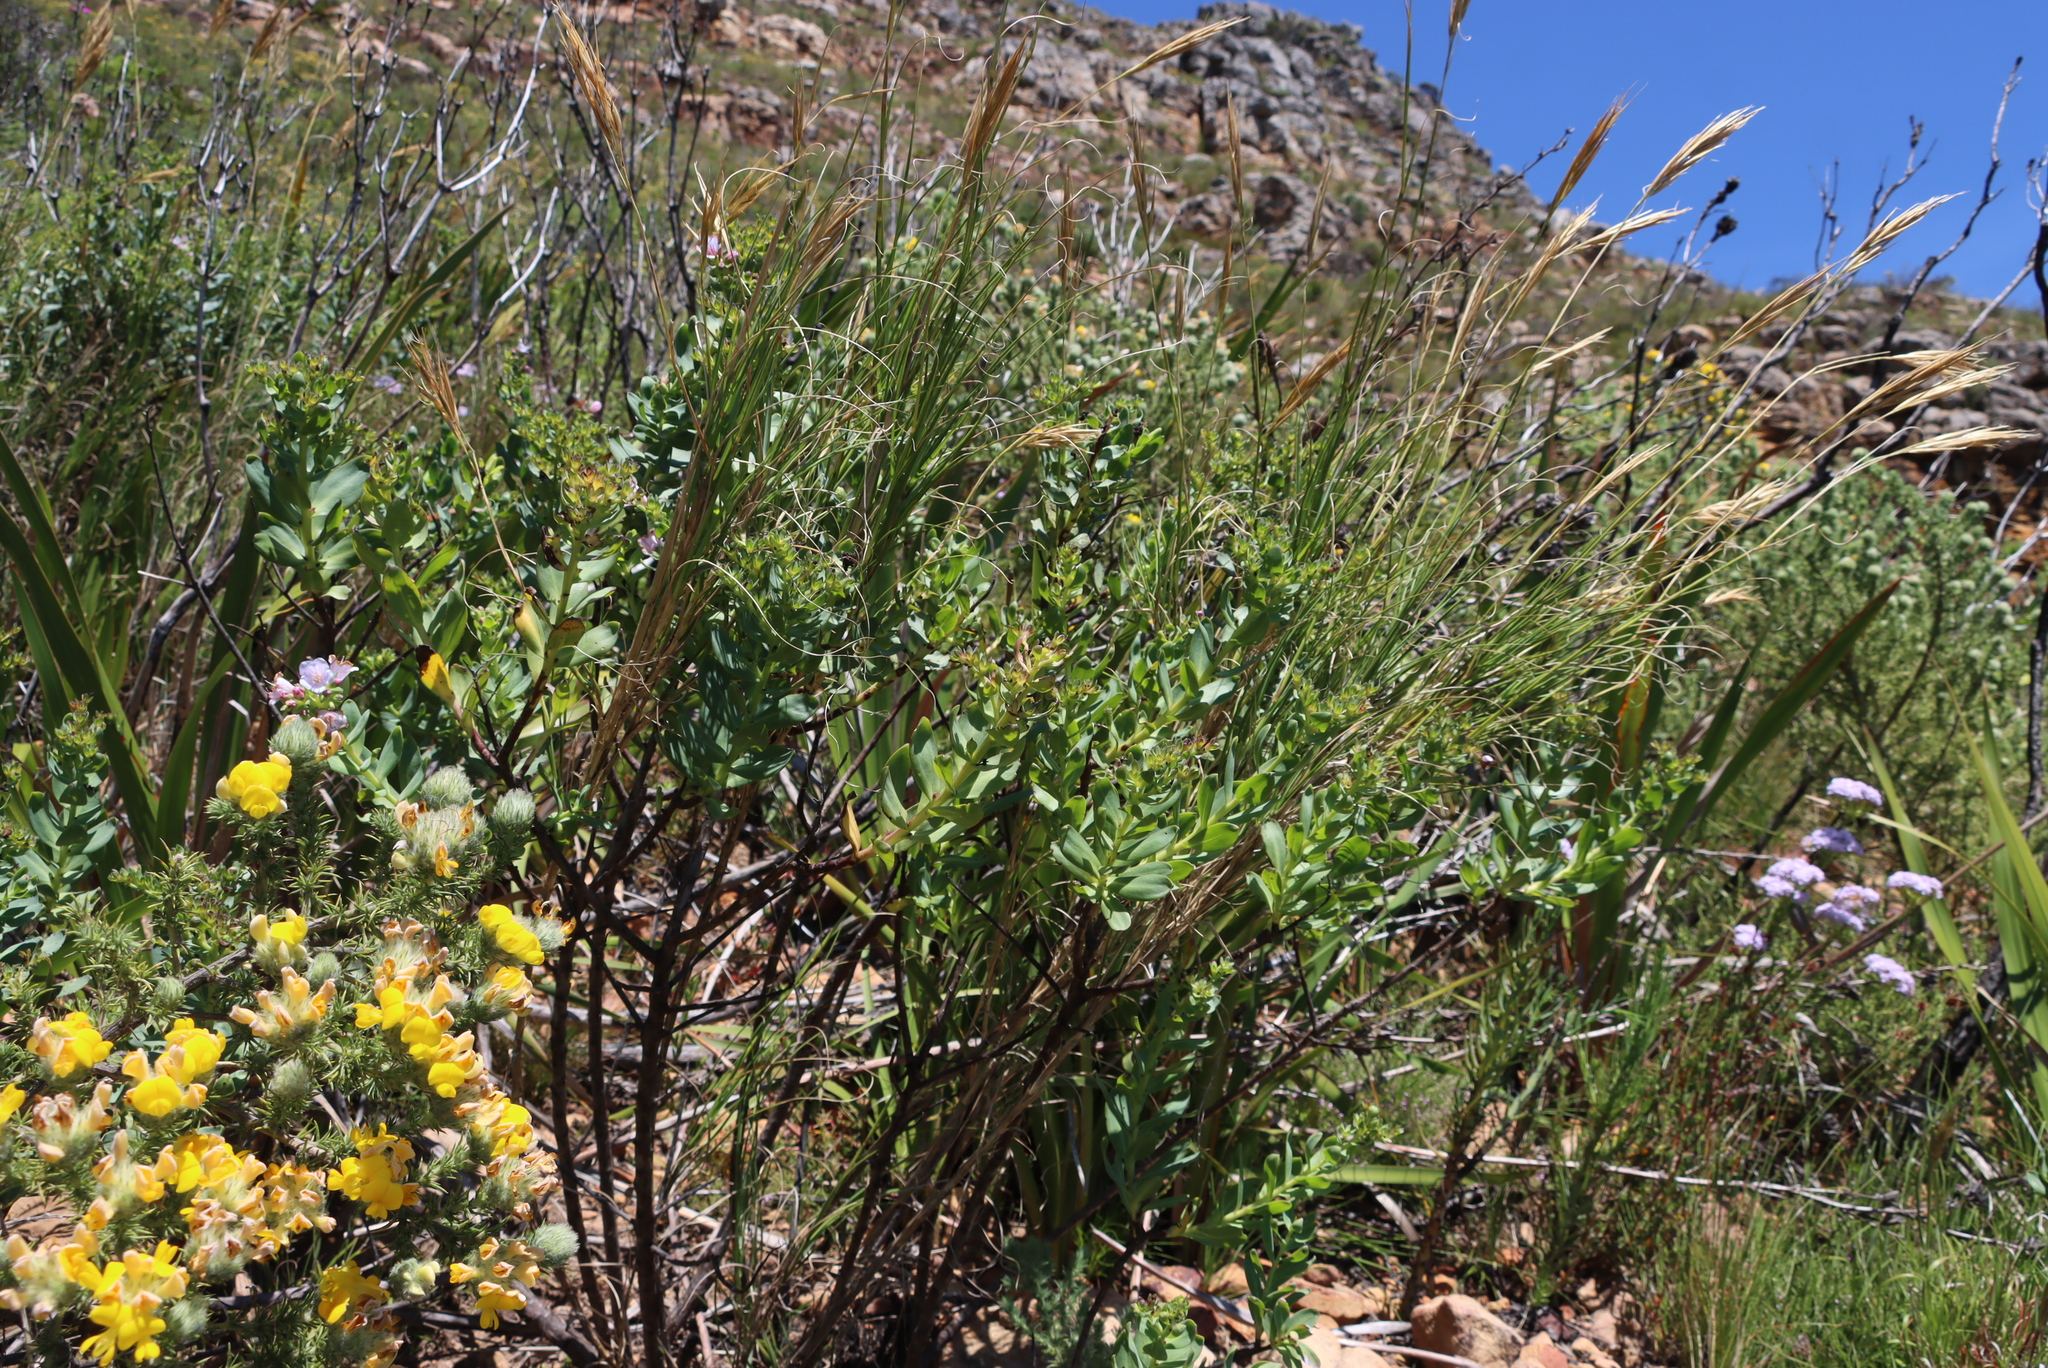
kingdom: Plantae
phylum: Tracheophyta
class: Magnoliopsida
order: Boraginales
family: Boraginaceae
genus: Lobostemon
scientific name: Lobostemon glaucophyllus
